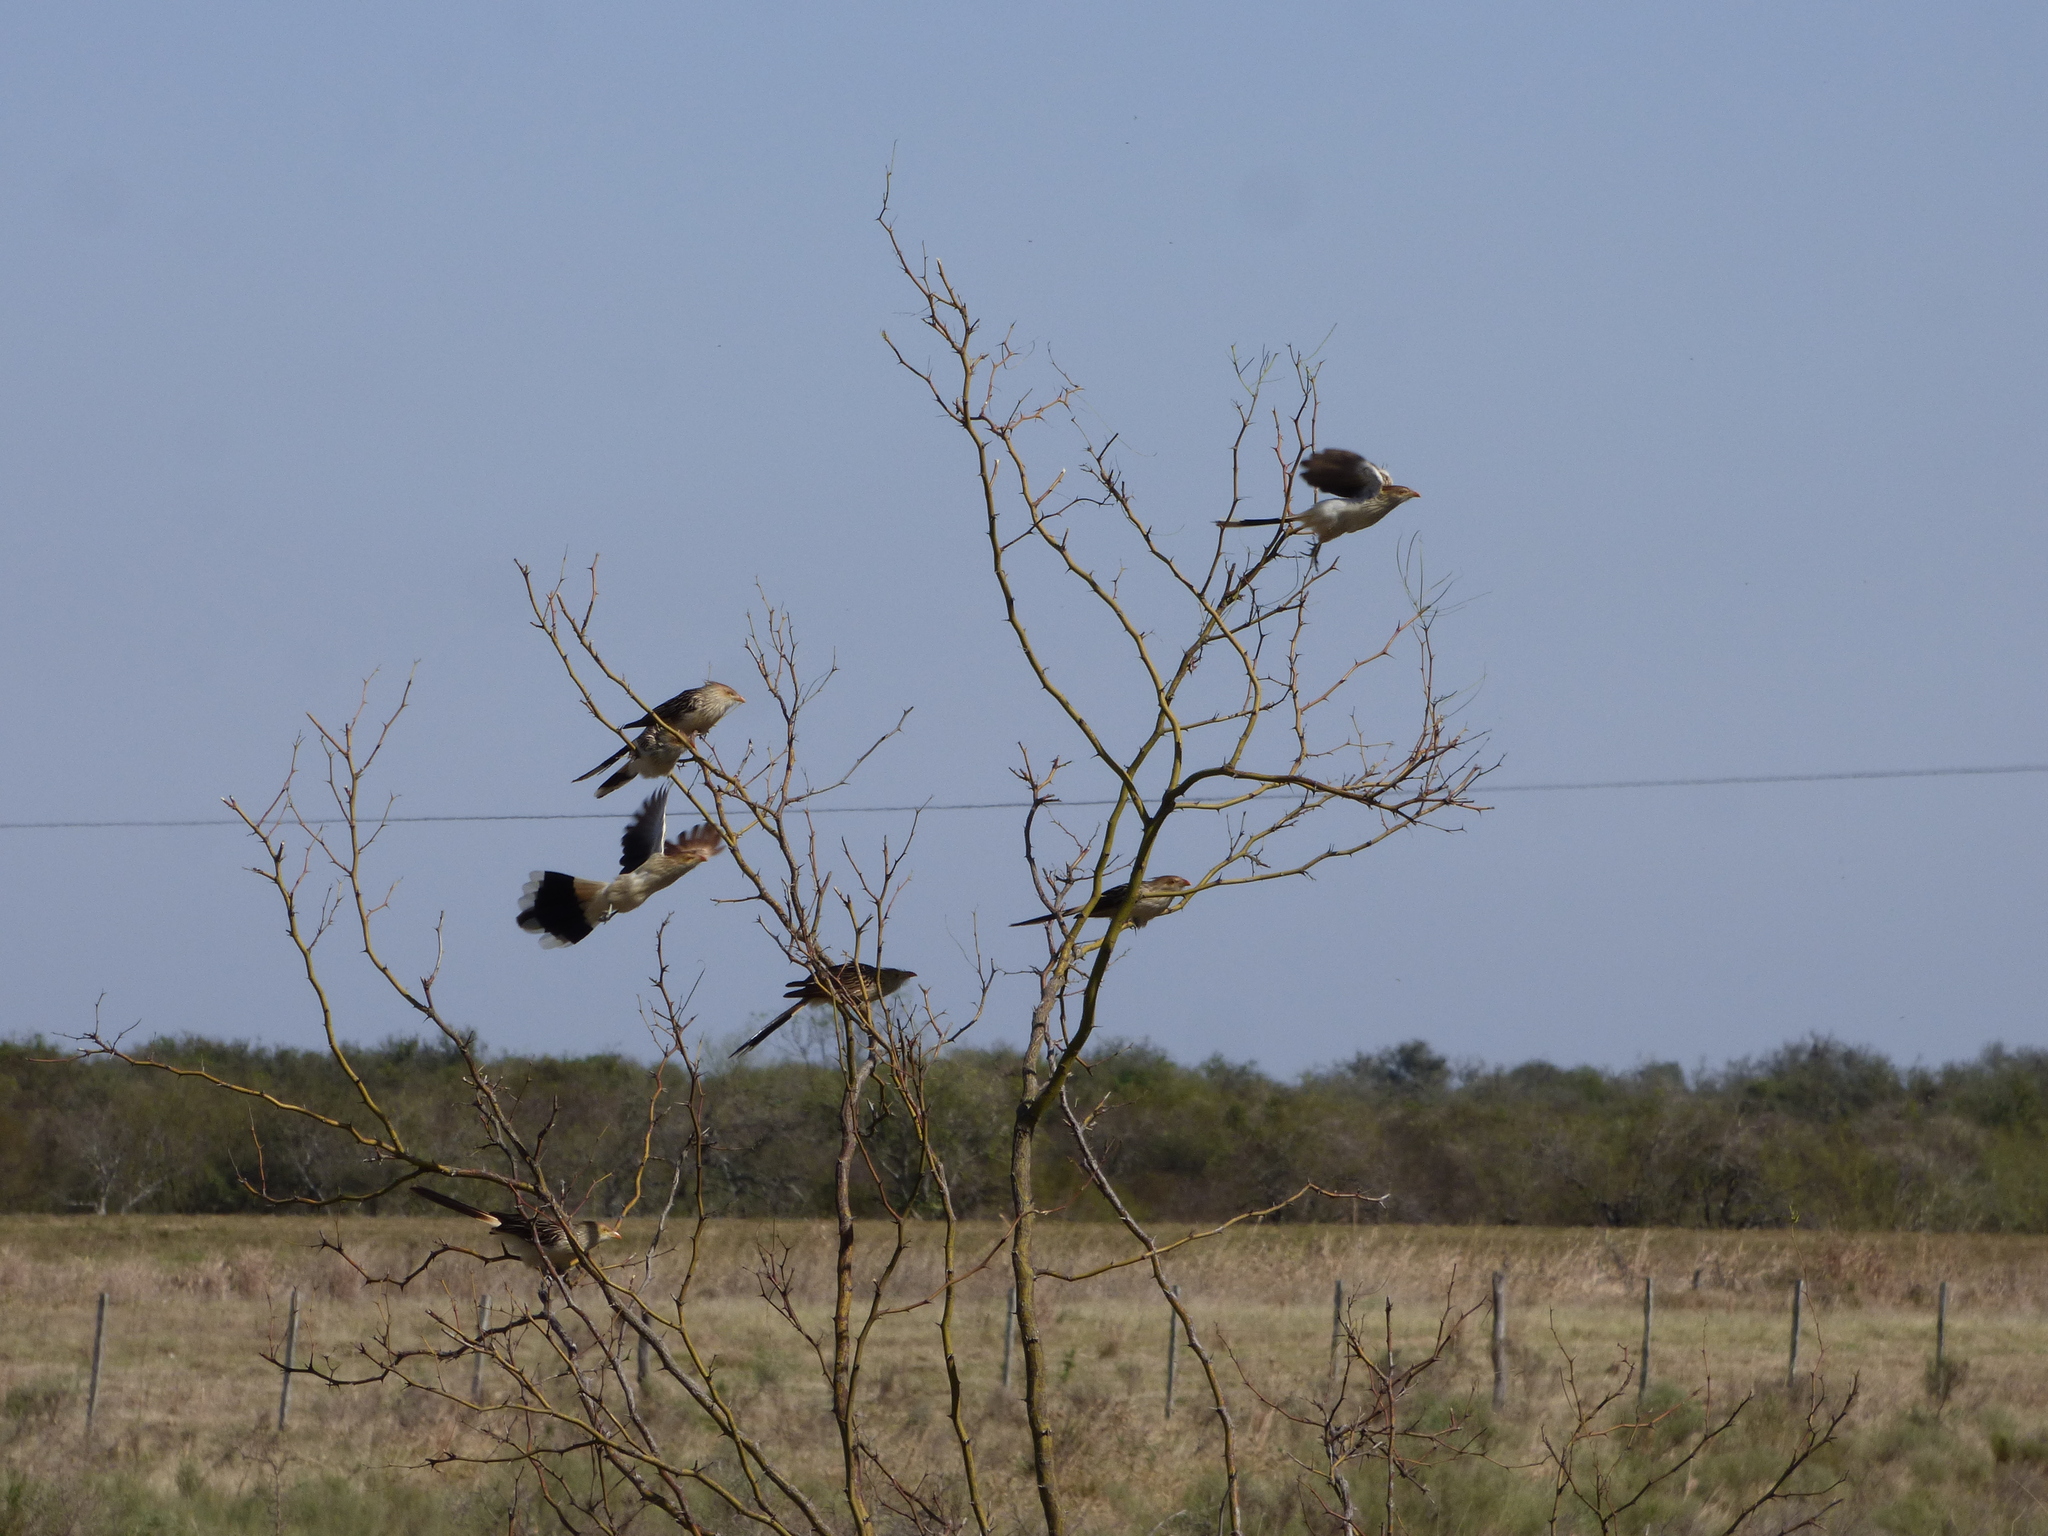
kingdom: Animalia
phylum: Chordata
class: Aves
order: Cuculiformes
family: Cuculidae
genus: Guira
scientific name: Guira guira
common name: Guira cuckoo
